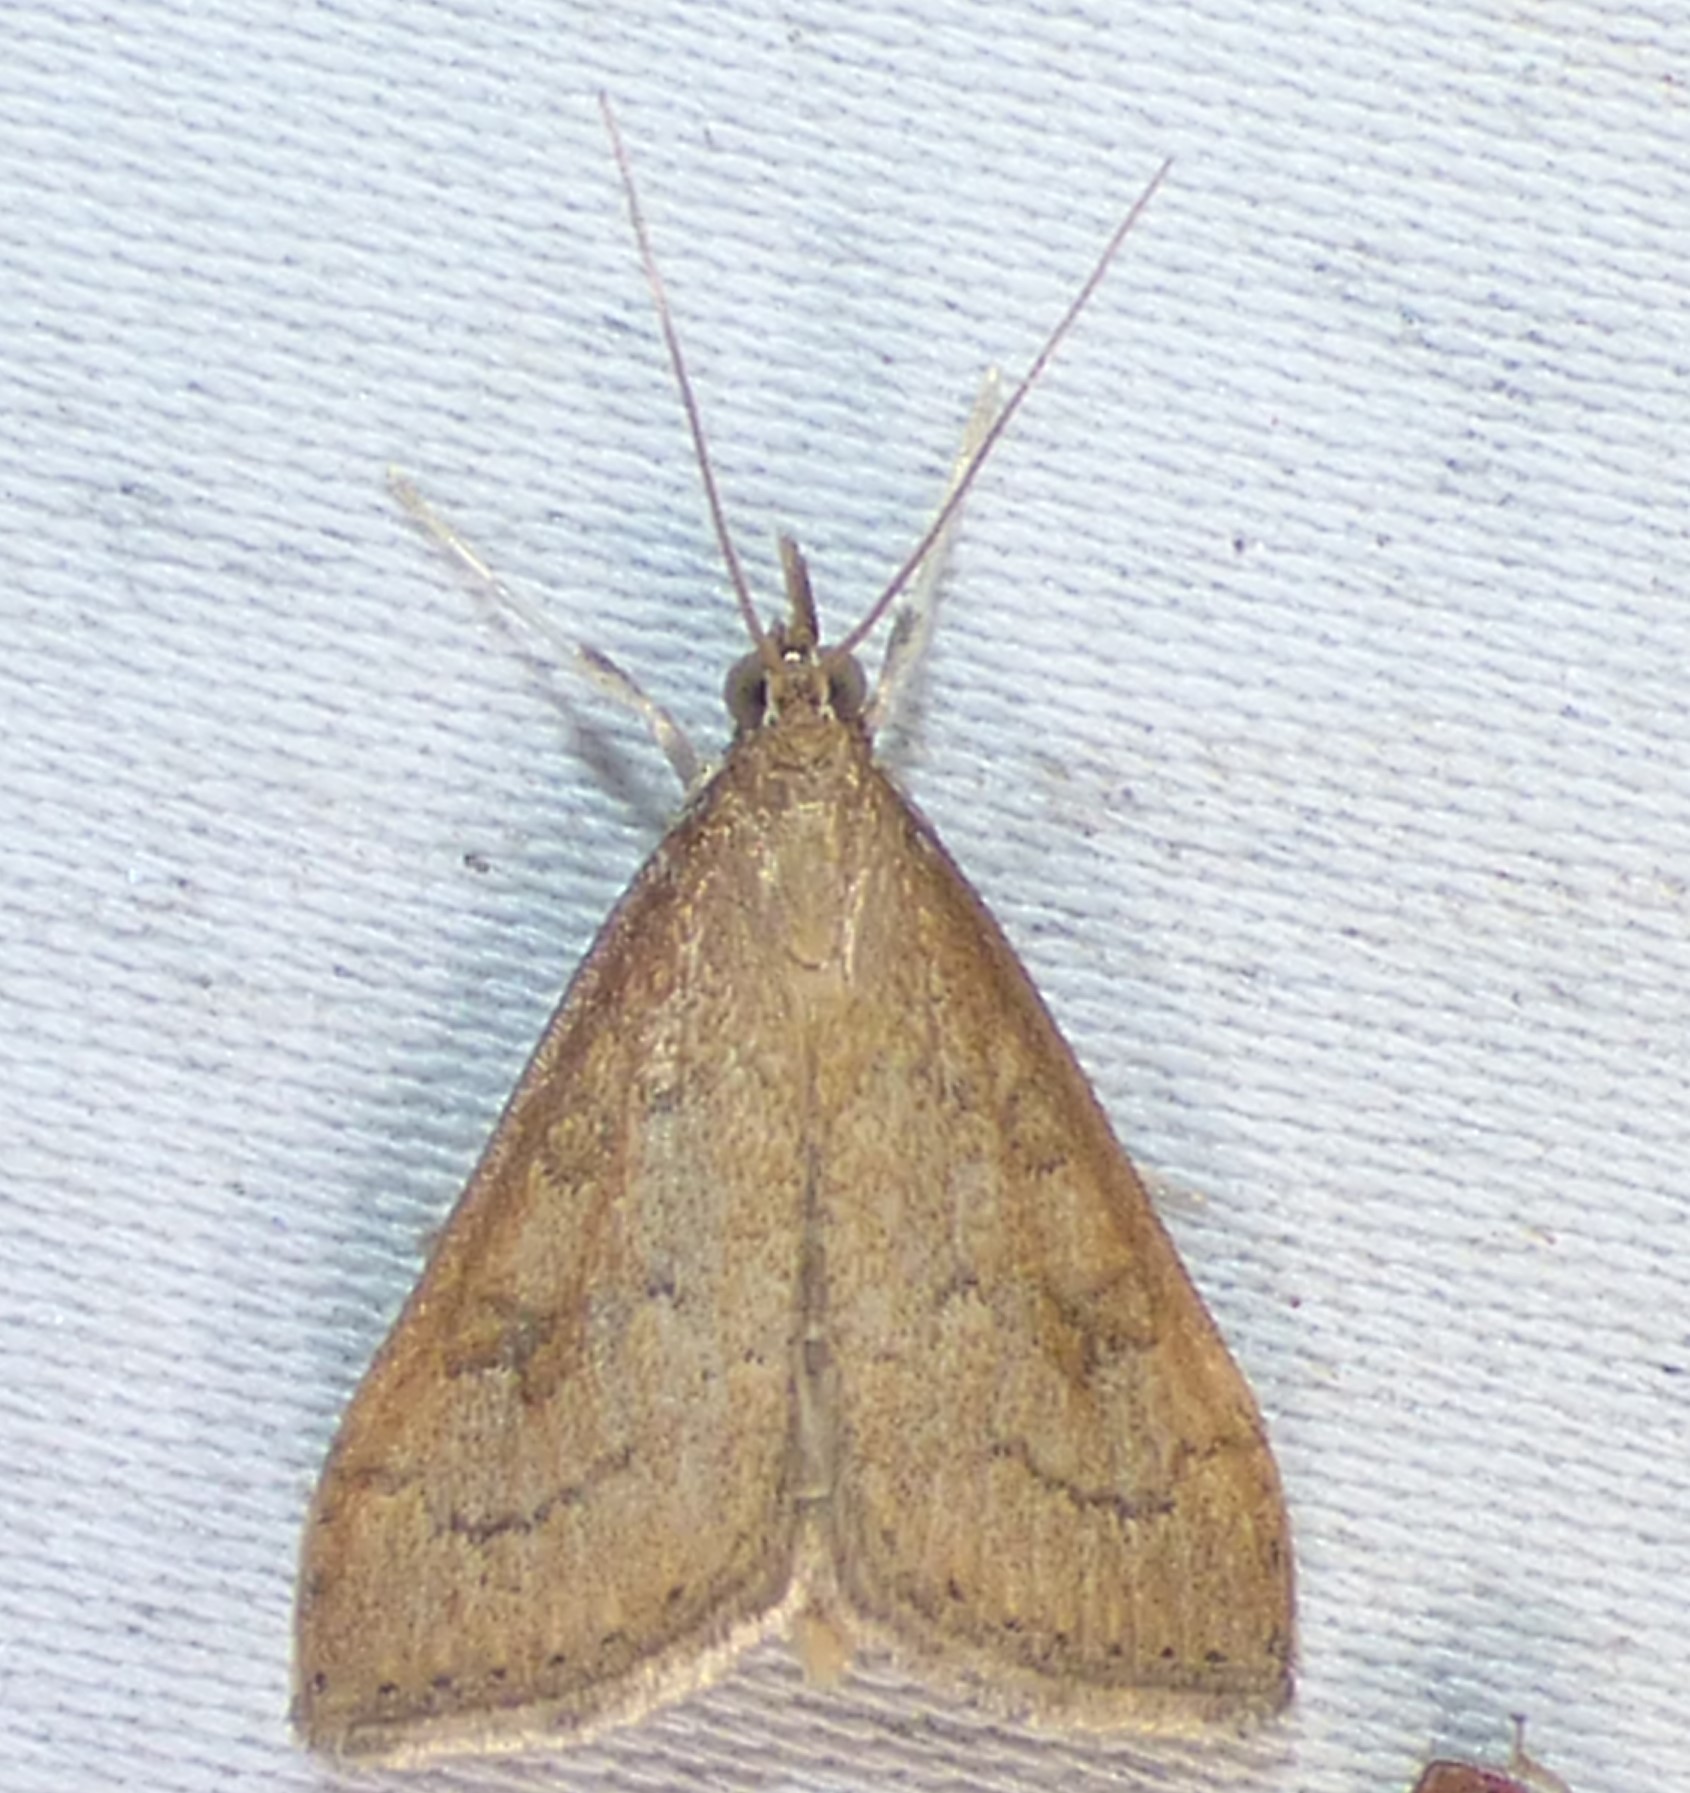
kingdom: Animalia
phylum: Arthropoda
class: Insecta
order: Lepidoptera
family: Crambidae
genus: Udea
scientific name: Udea rubigalis
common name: Celery leaftier moth
